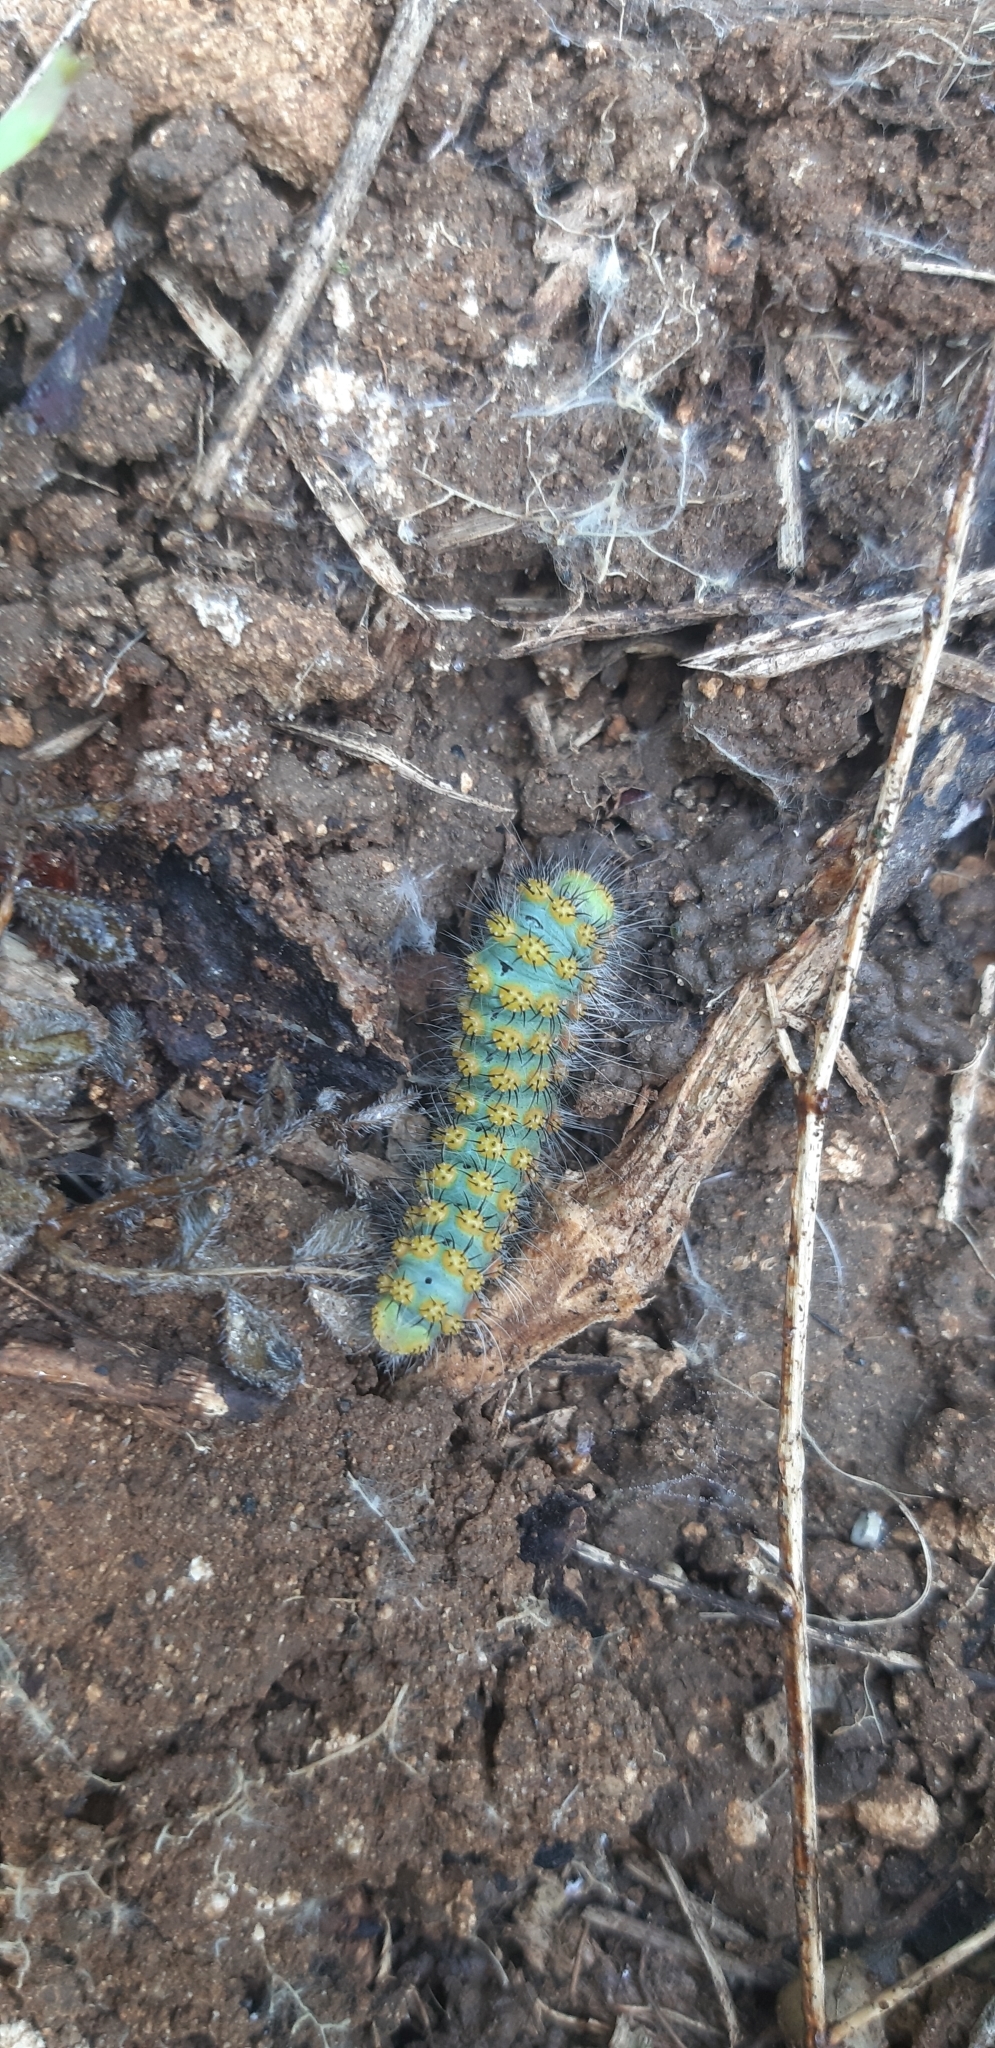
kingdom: Animalia
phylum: Arthropoda
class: Insecta
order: Lepidoptera
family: Saturniidae
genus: Saturnia
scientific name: Saturnia pavoniella
